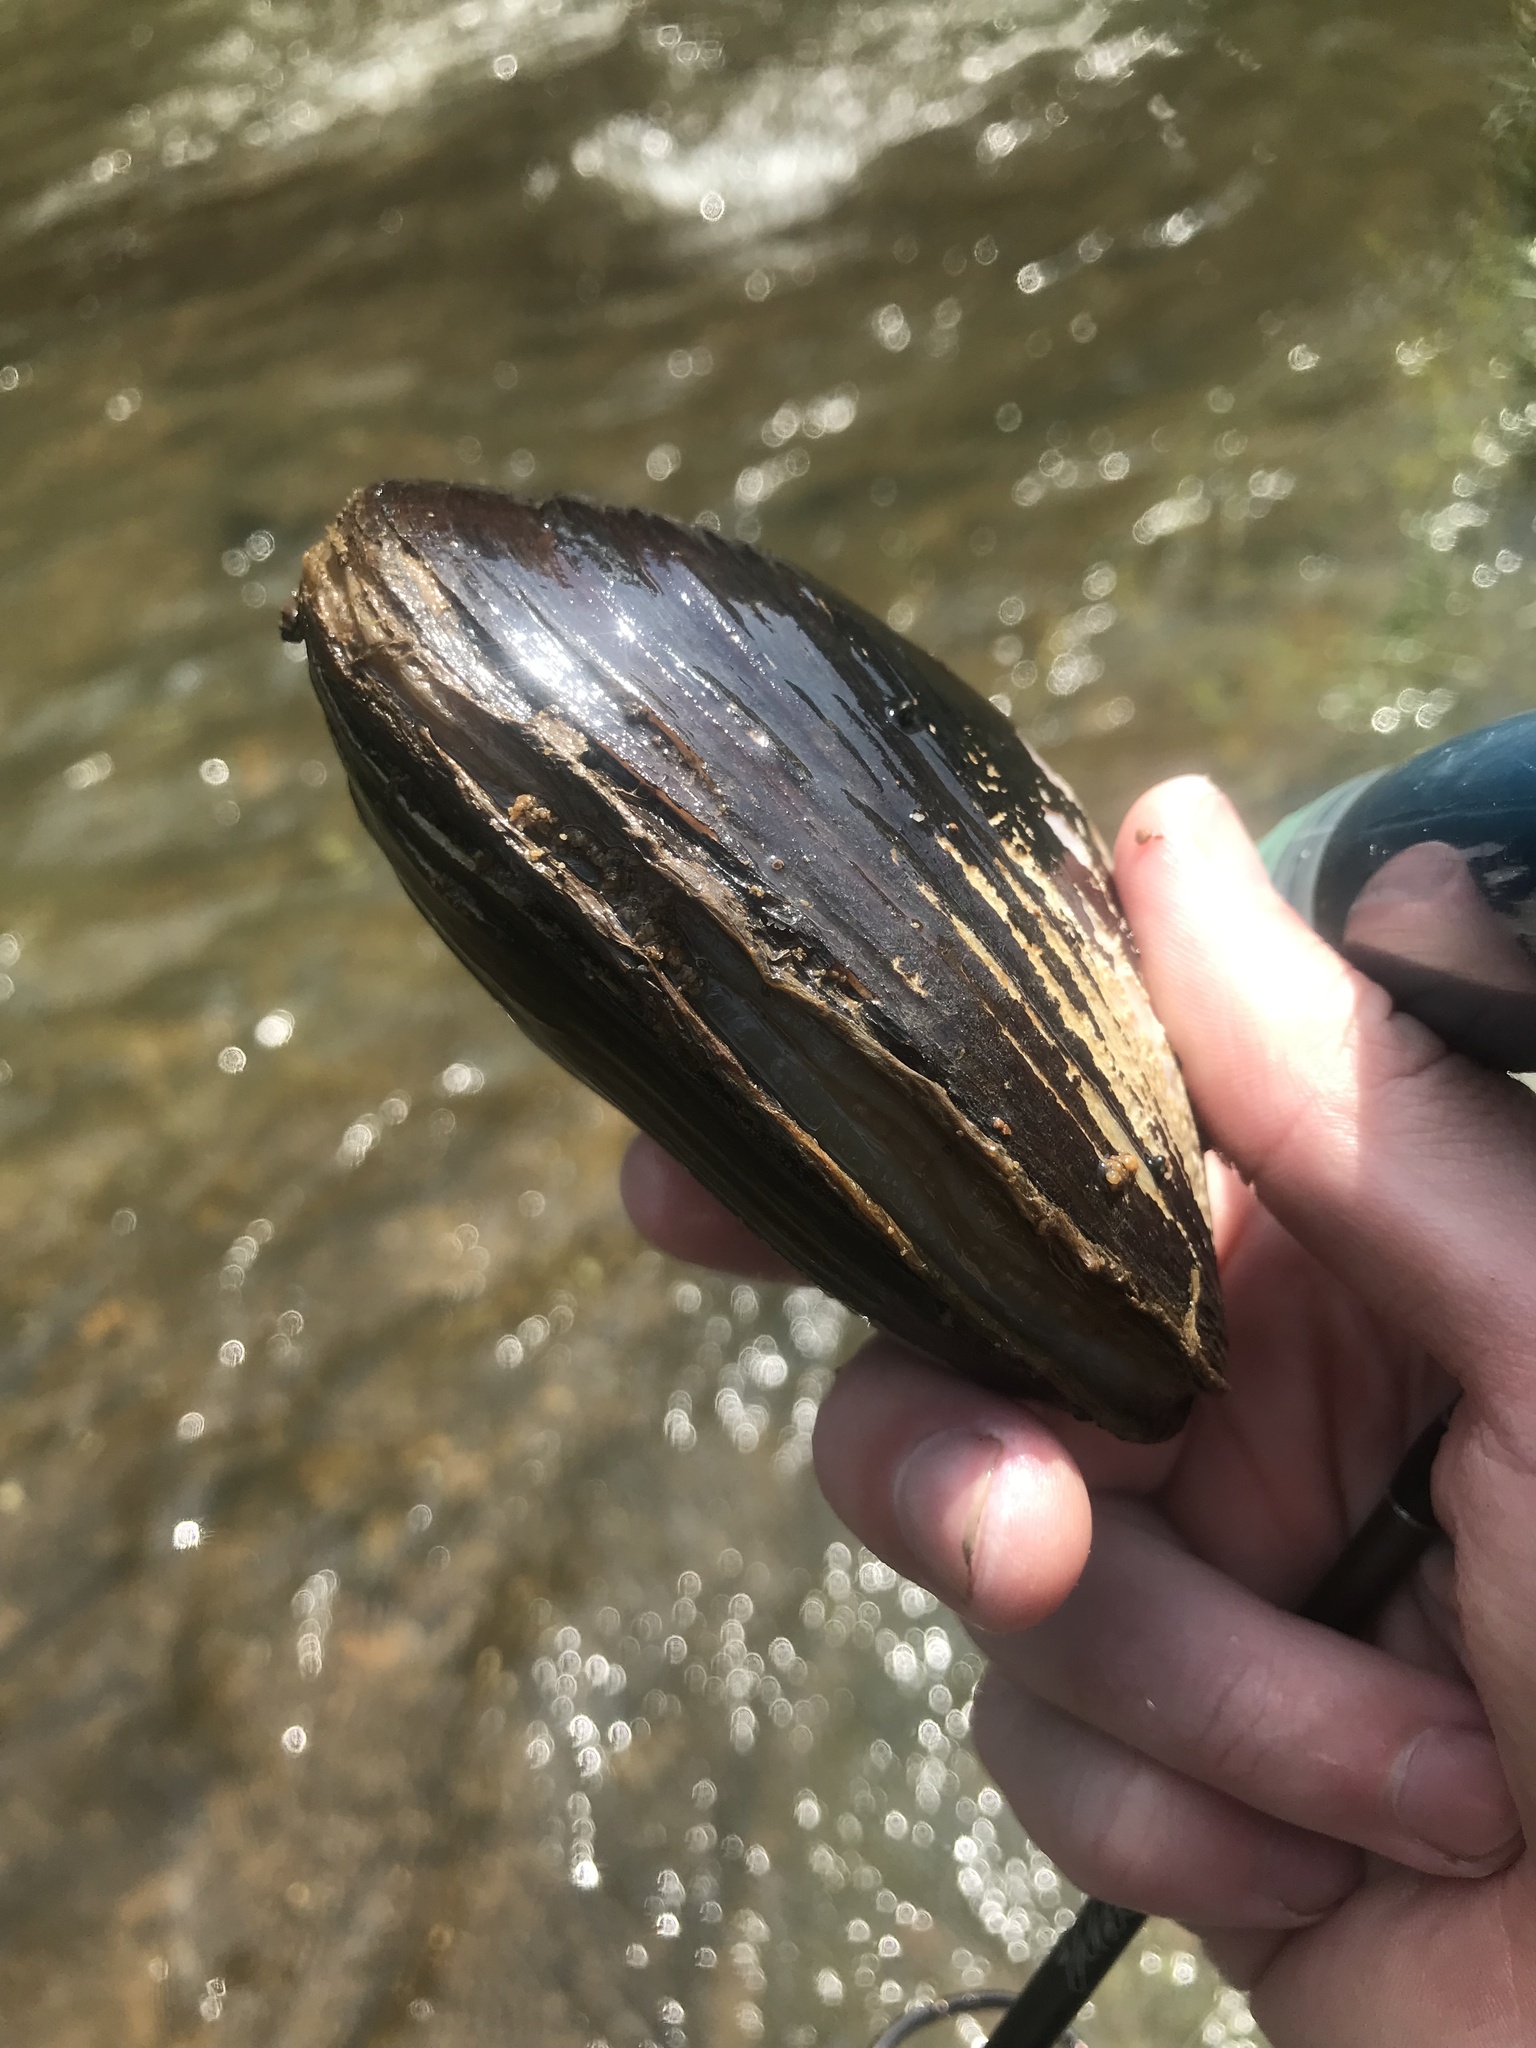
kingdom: Animalia
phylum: Mollusca
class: Bivalvia
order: Unionida
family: Unionidae
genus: Potamilus
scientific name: Potamilus purpuratus
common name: Bleufer
